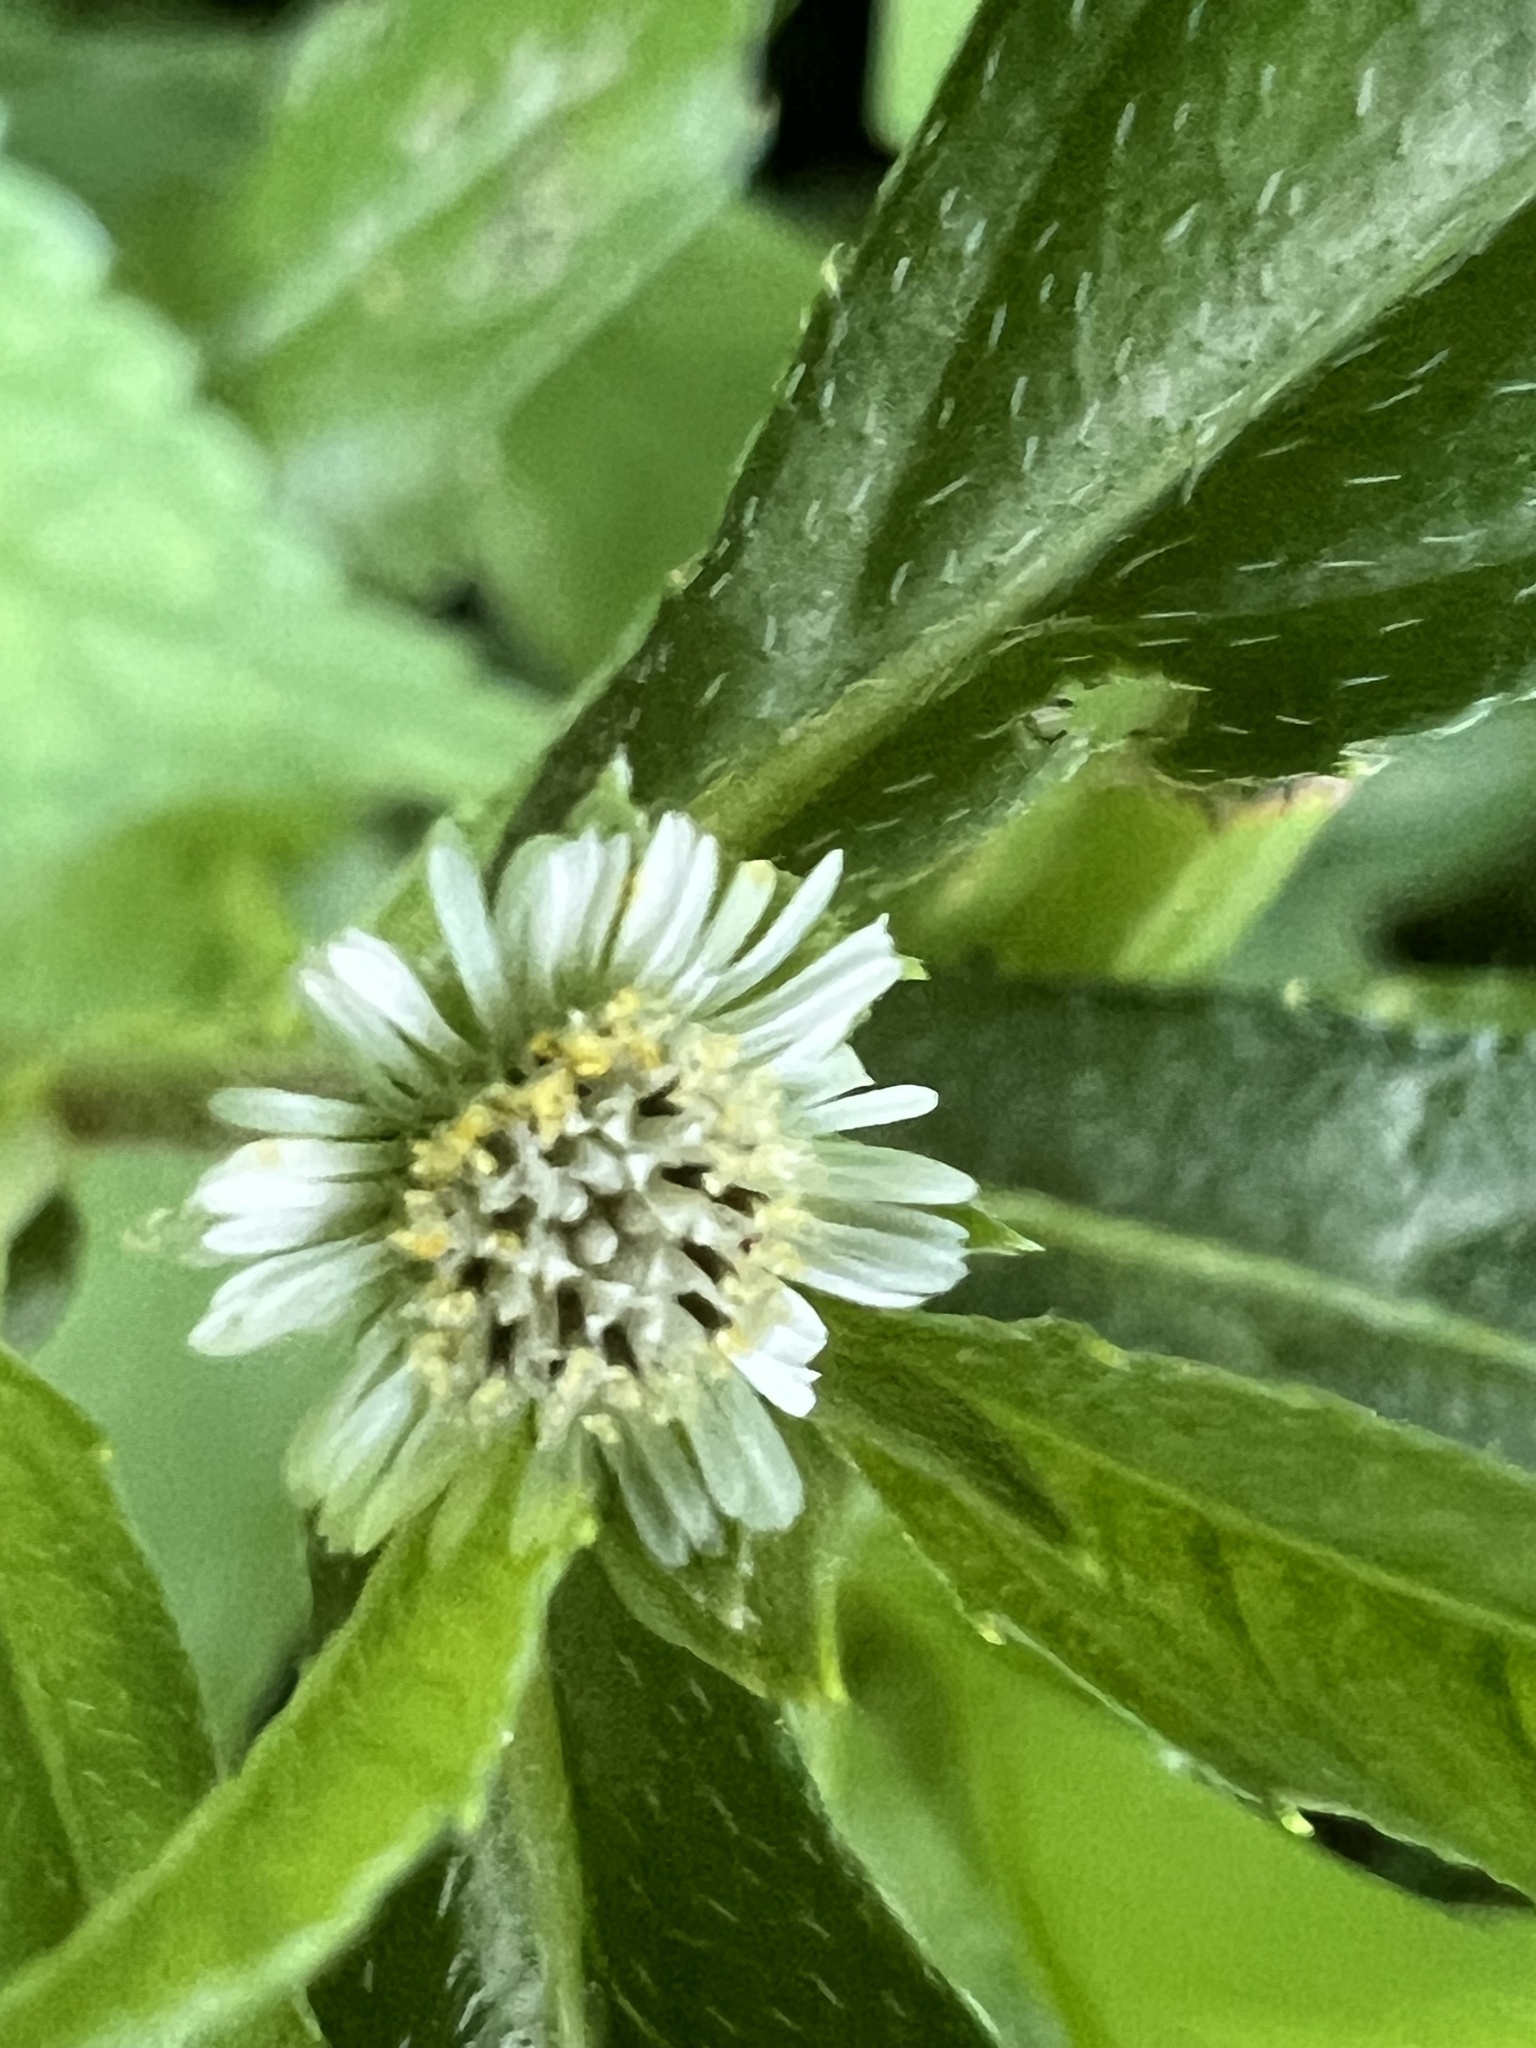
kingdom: Plantae
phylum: Tracheophyta
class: Magnoliopsida
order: Asterales
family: Asteraceae
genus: Eclipta
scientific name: Eclipta prostrata
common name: False daisy
